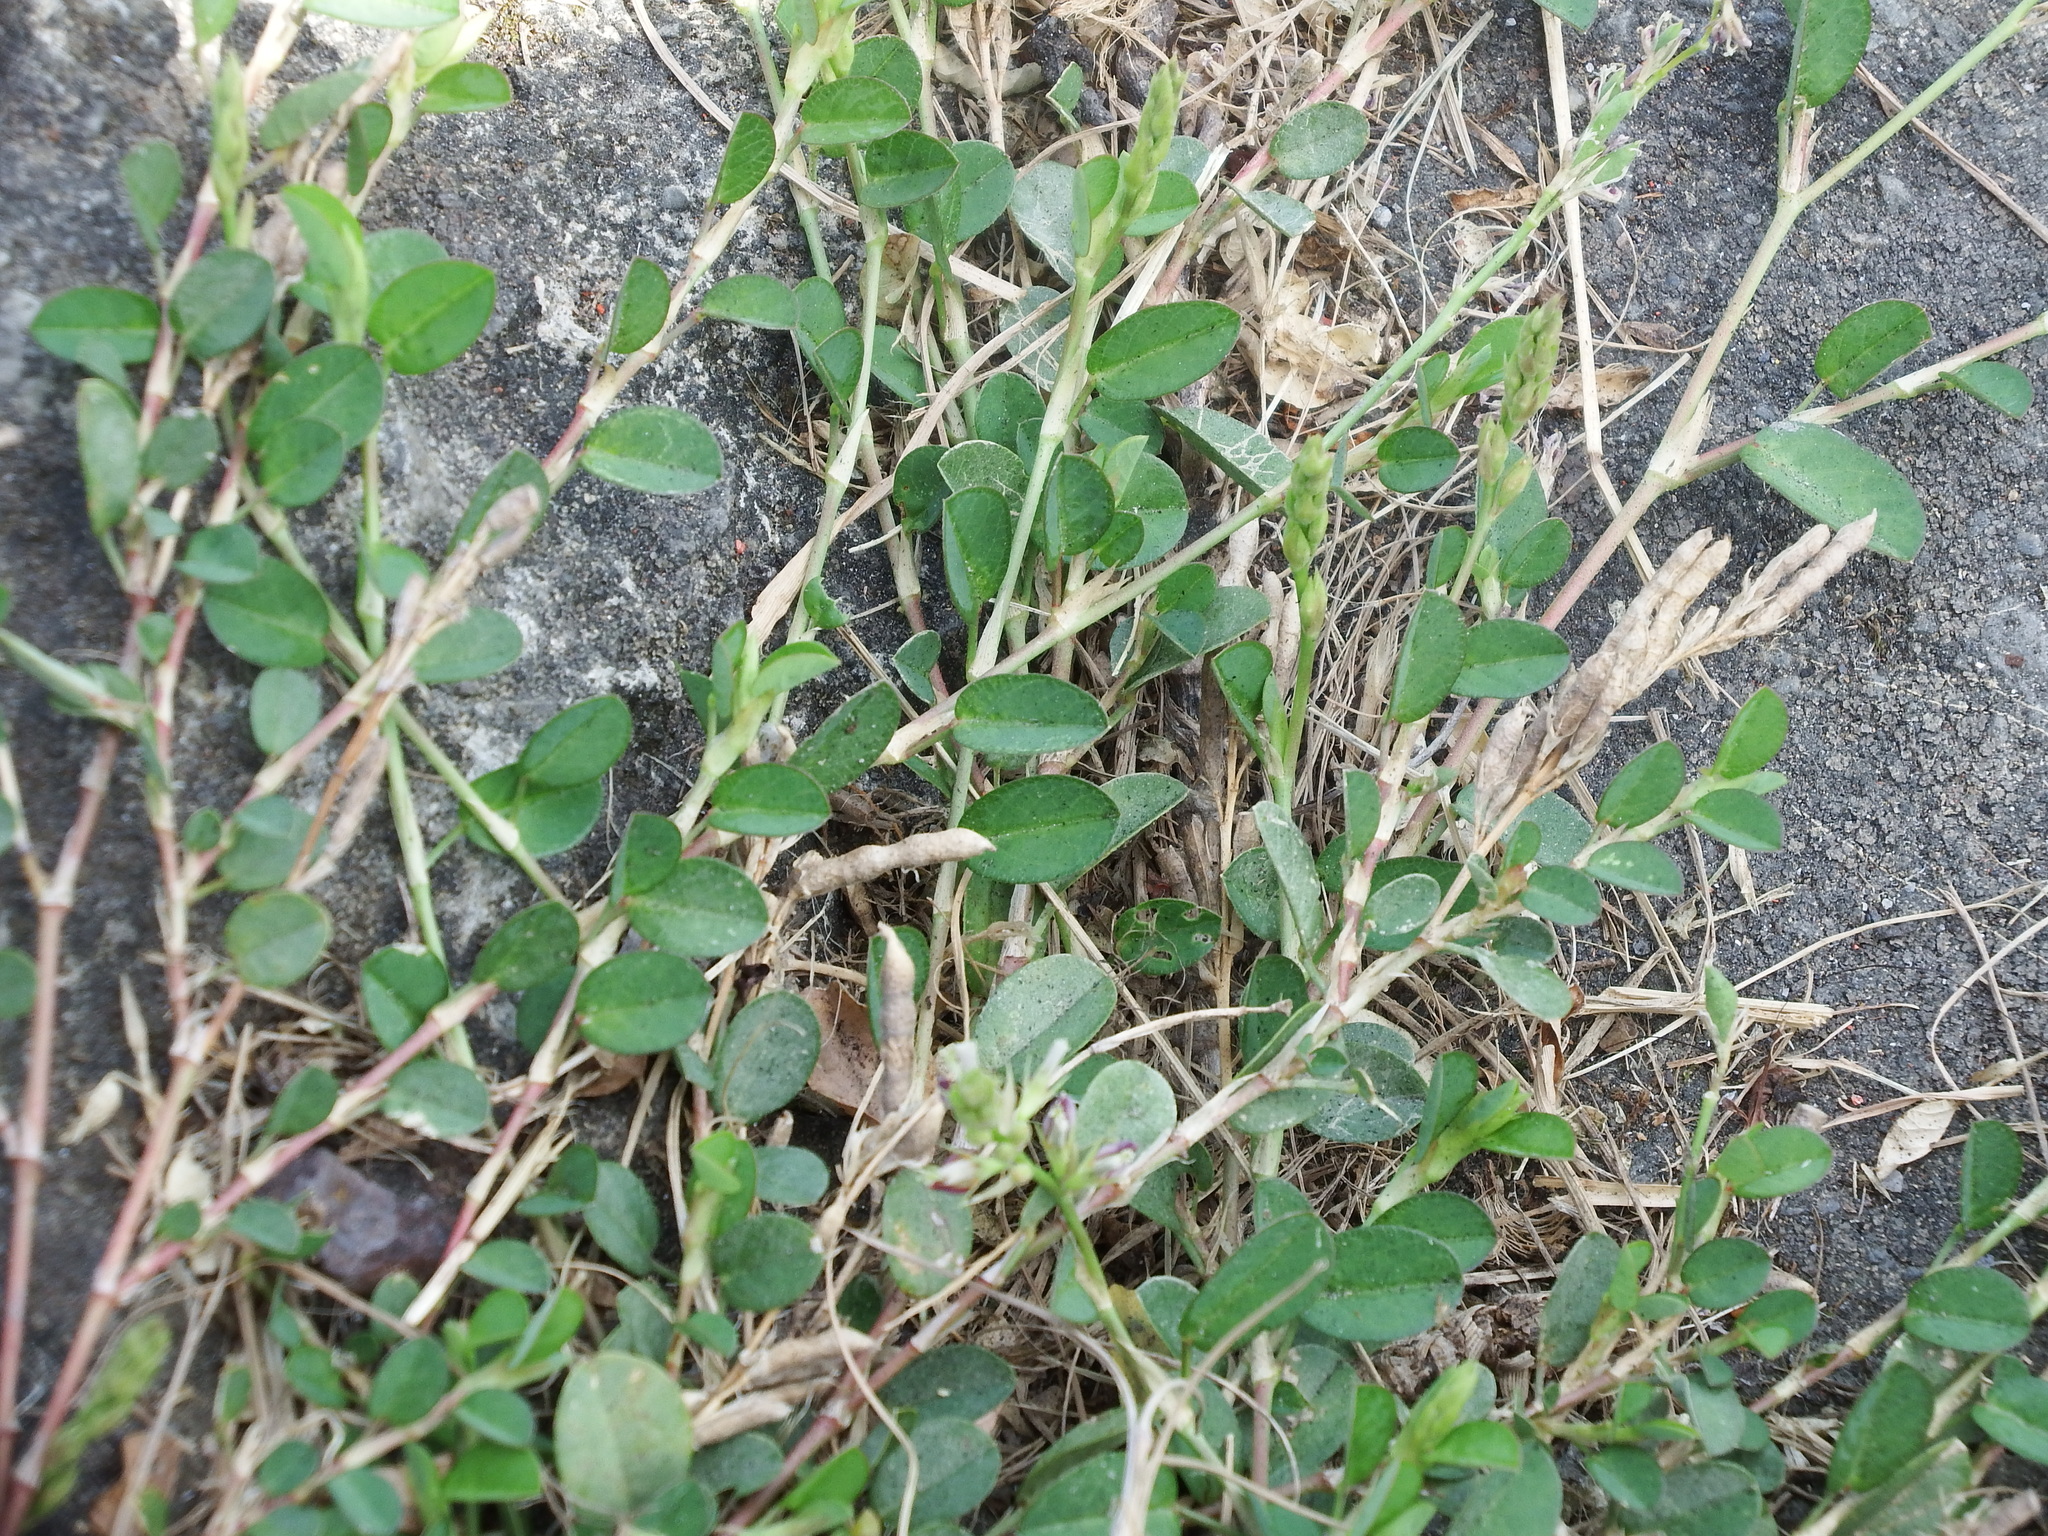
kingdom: Plantae
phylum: Tracheophyta
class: Magnoliopsida
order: Fabales
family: Fabaceae
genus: Alysicarpus
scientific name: Alysicarpus vaginalis
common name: White moneywort
